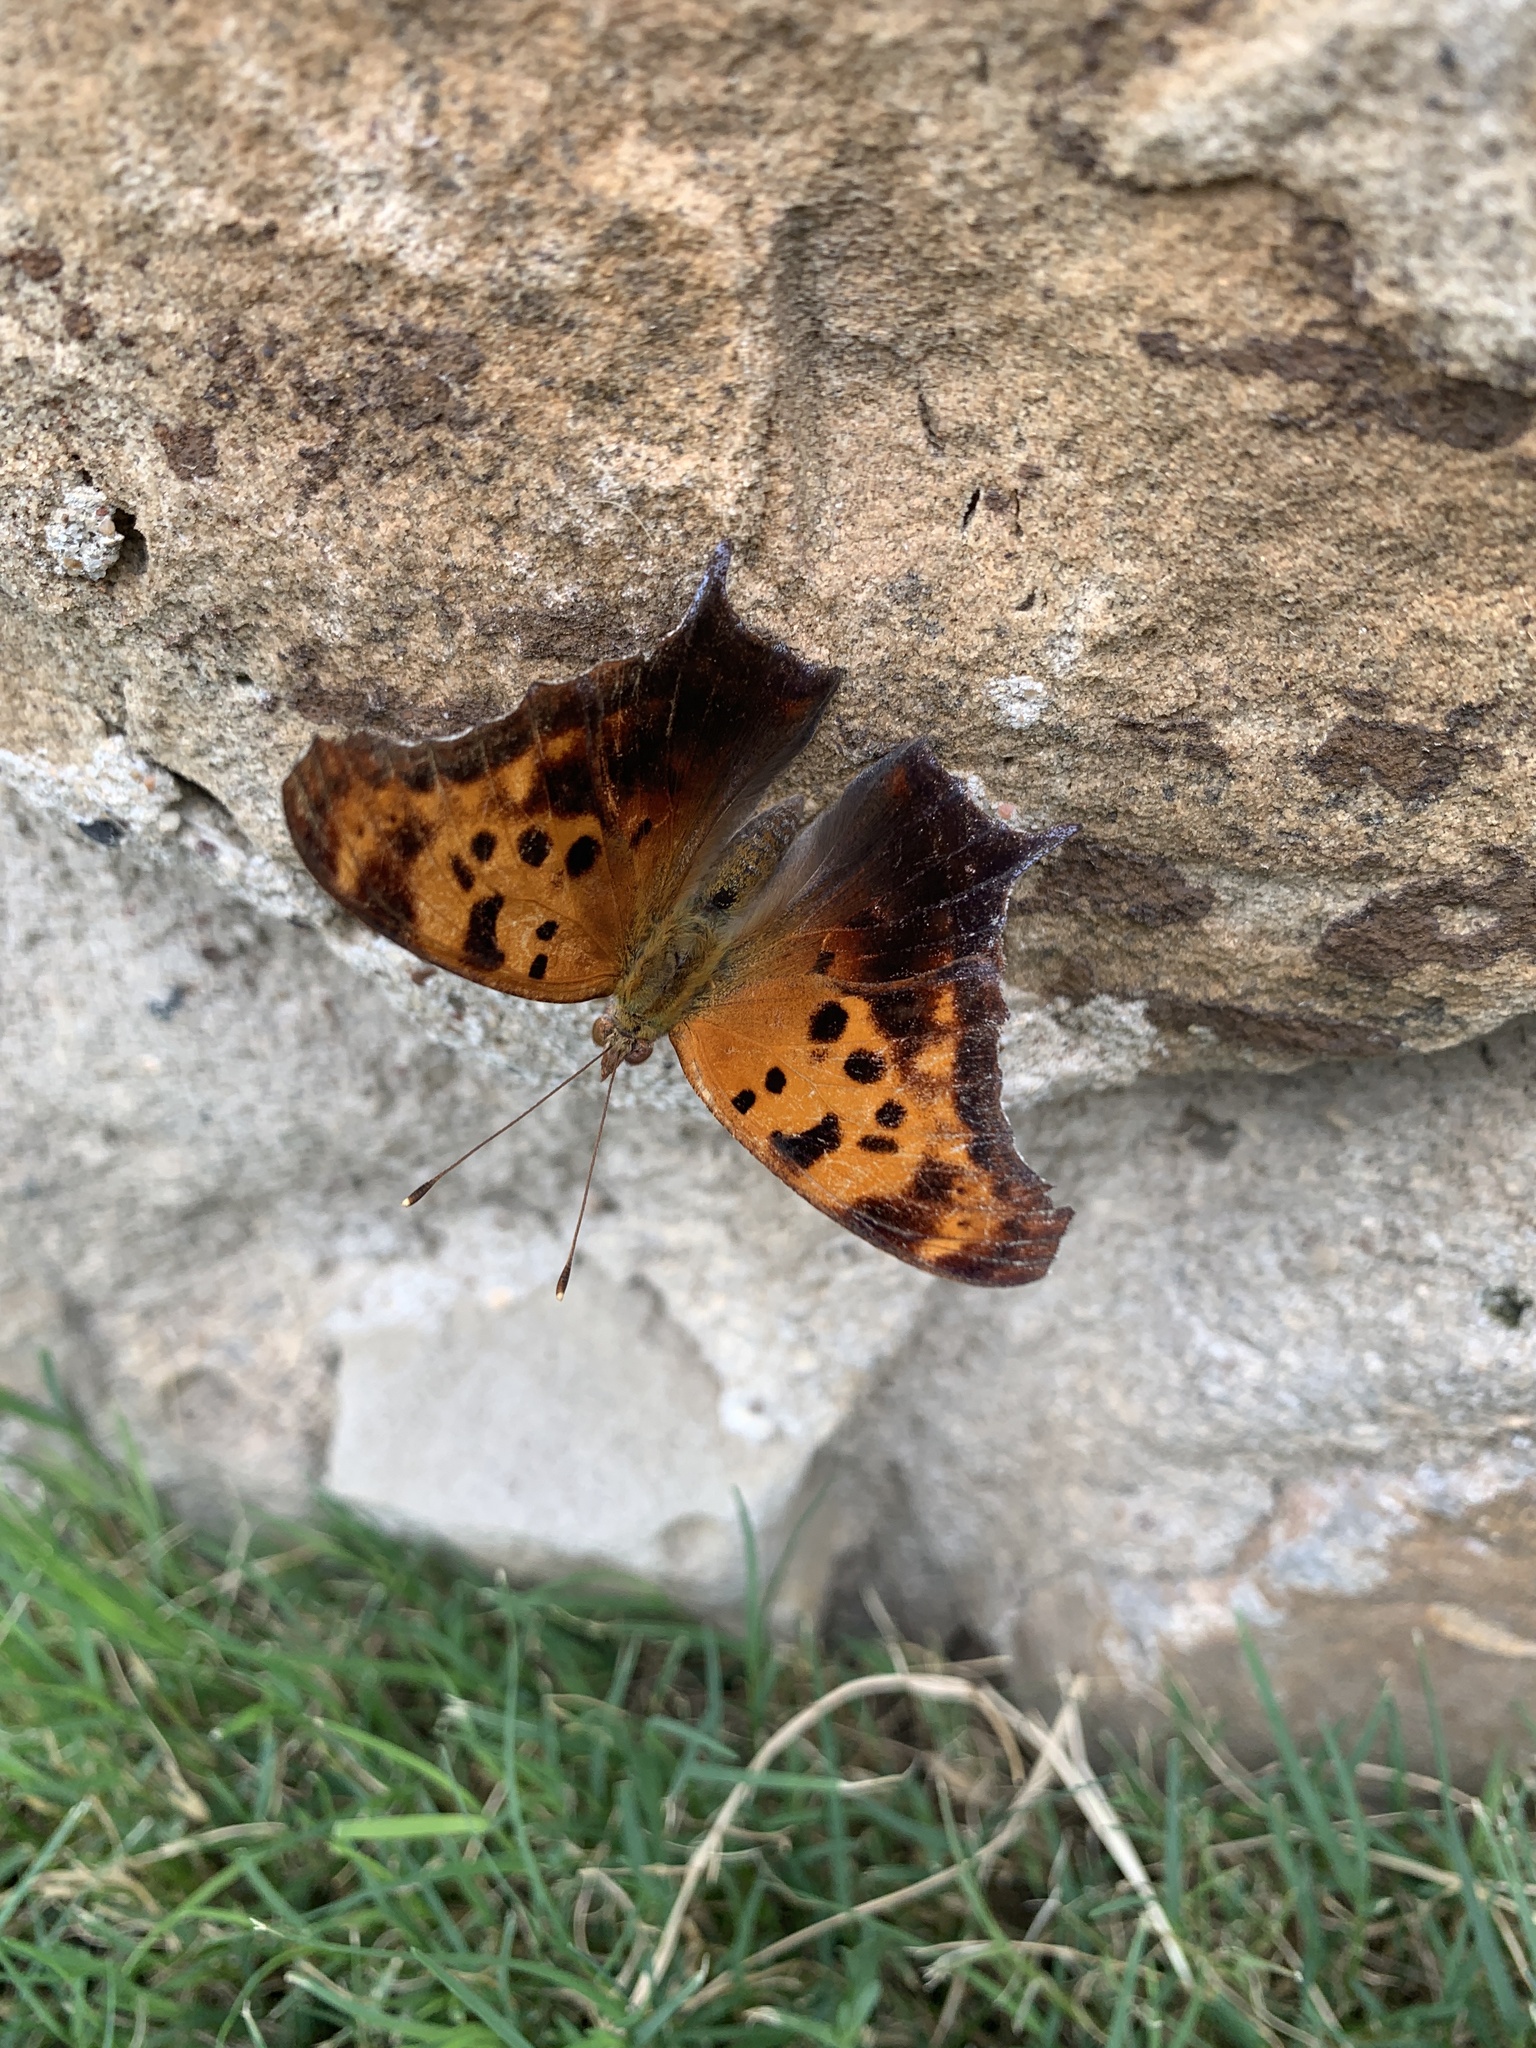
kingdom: Animalia
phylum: Arthropoda
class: Insecta
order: Lepidoptera
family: Nymphalidae
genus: Polygonia
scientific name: Polygonia interrogationis
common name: Question mark
